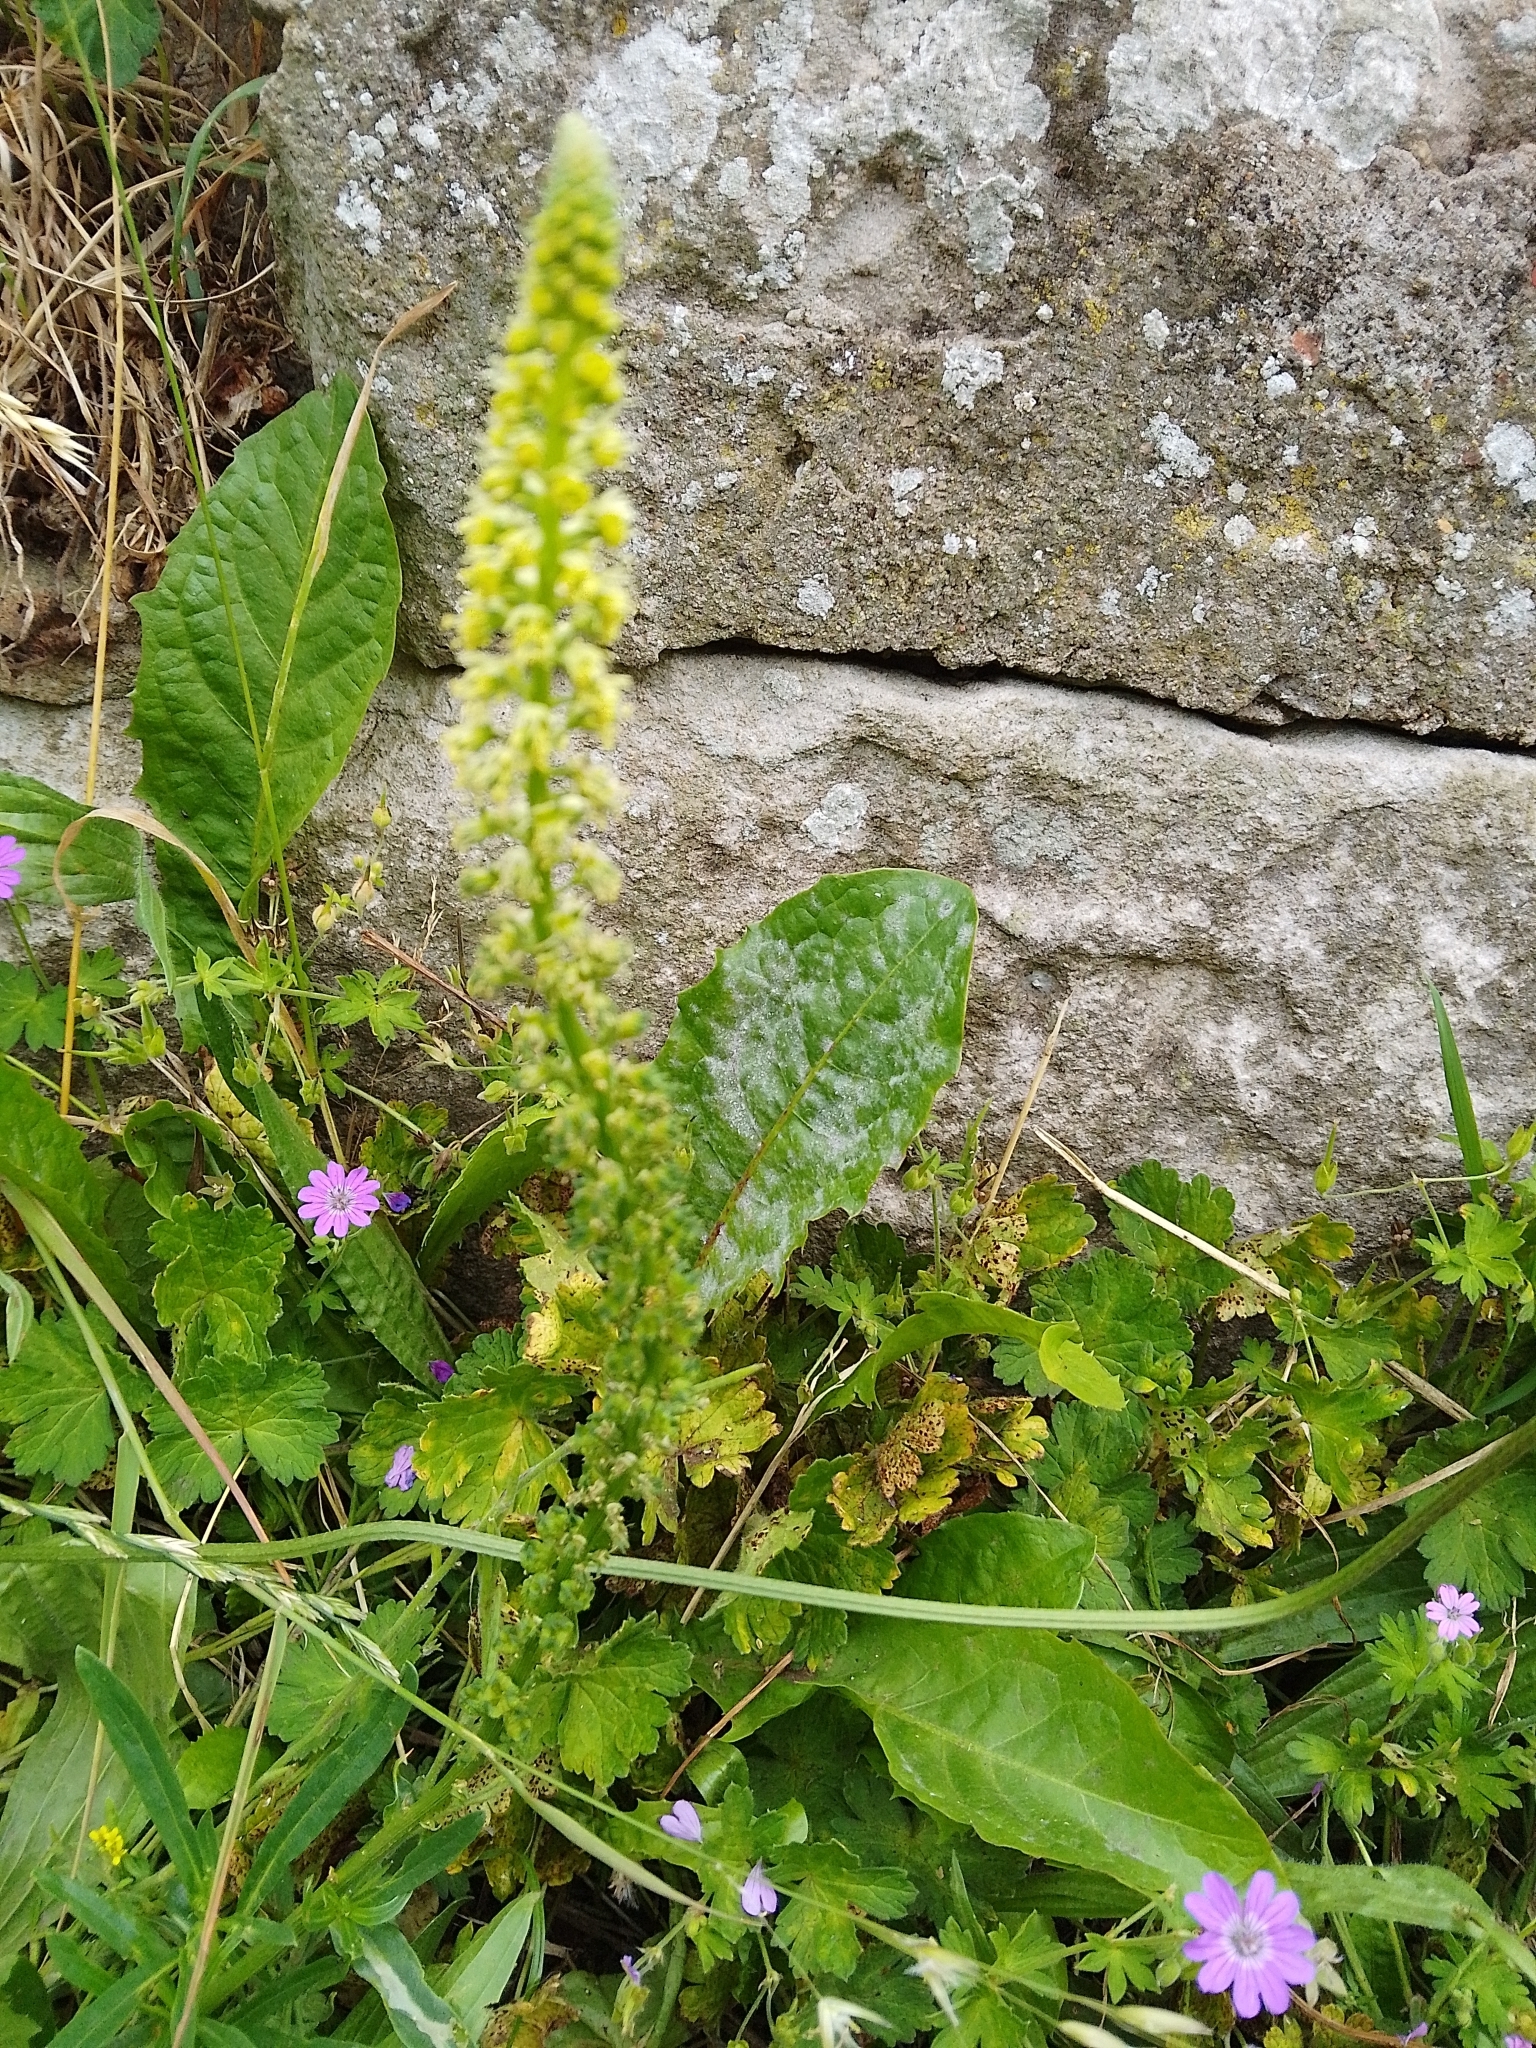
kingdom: Plantae
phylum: Tracheophyta
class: Magnoliopsida
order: Brassicales
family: Resedaceae
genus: Reseda
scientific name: Reseda luteola
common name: Weld
